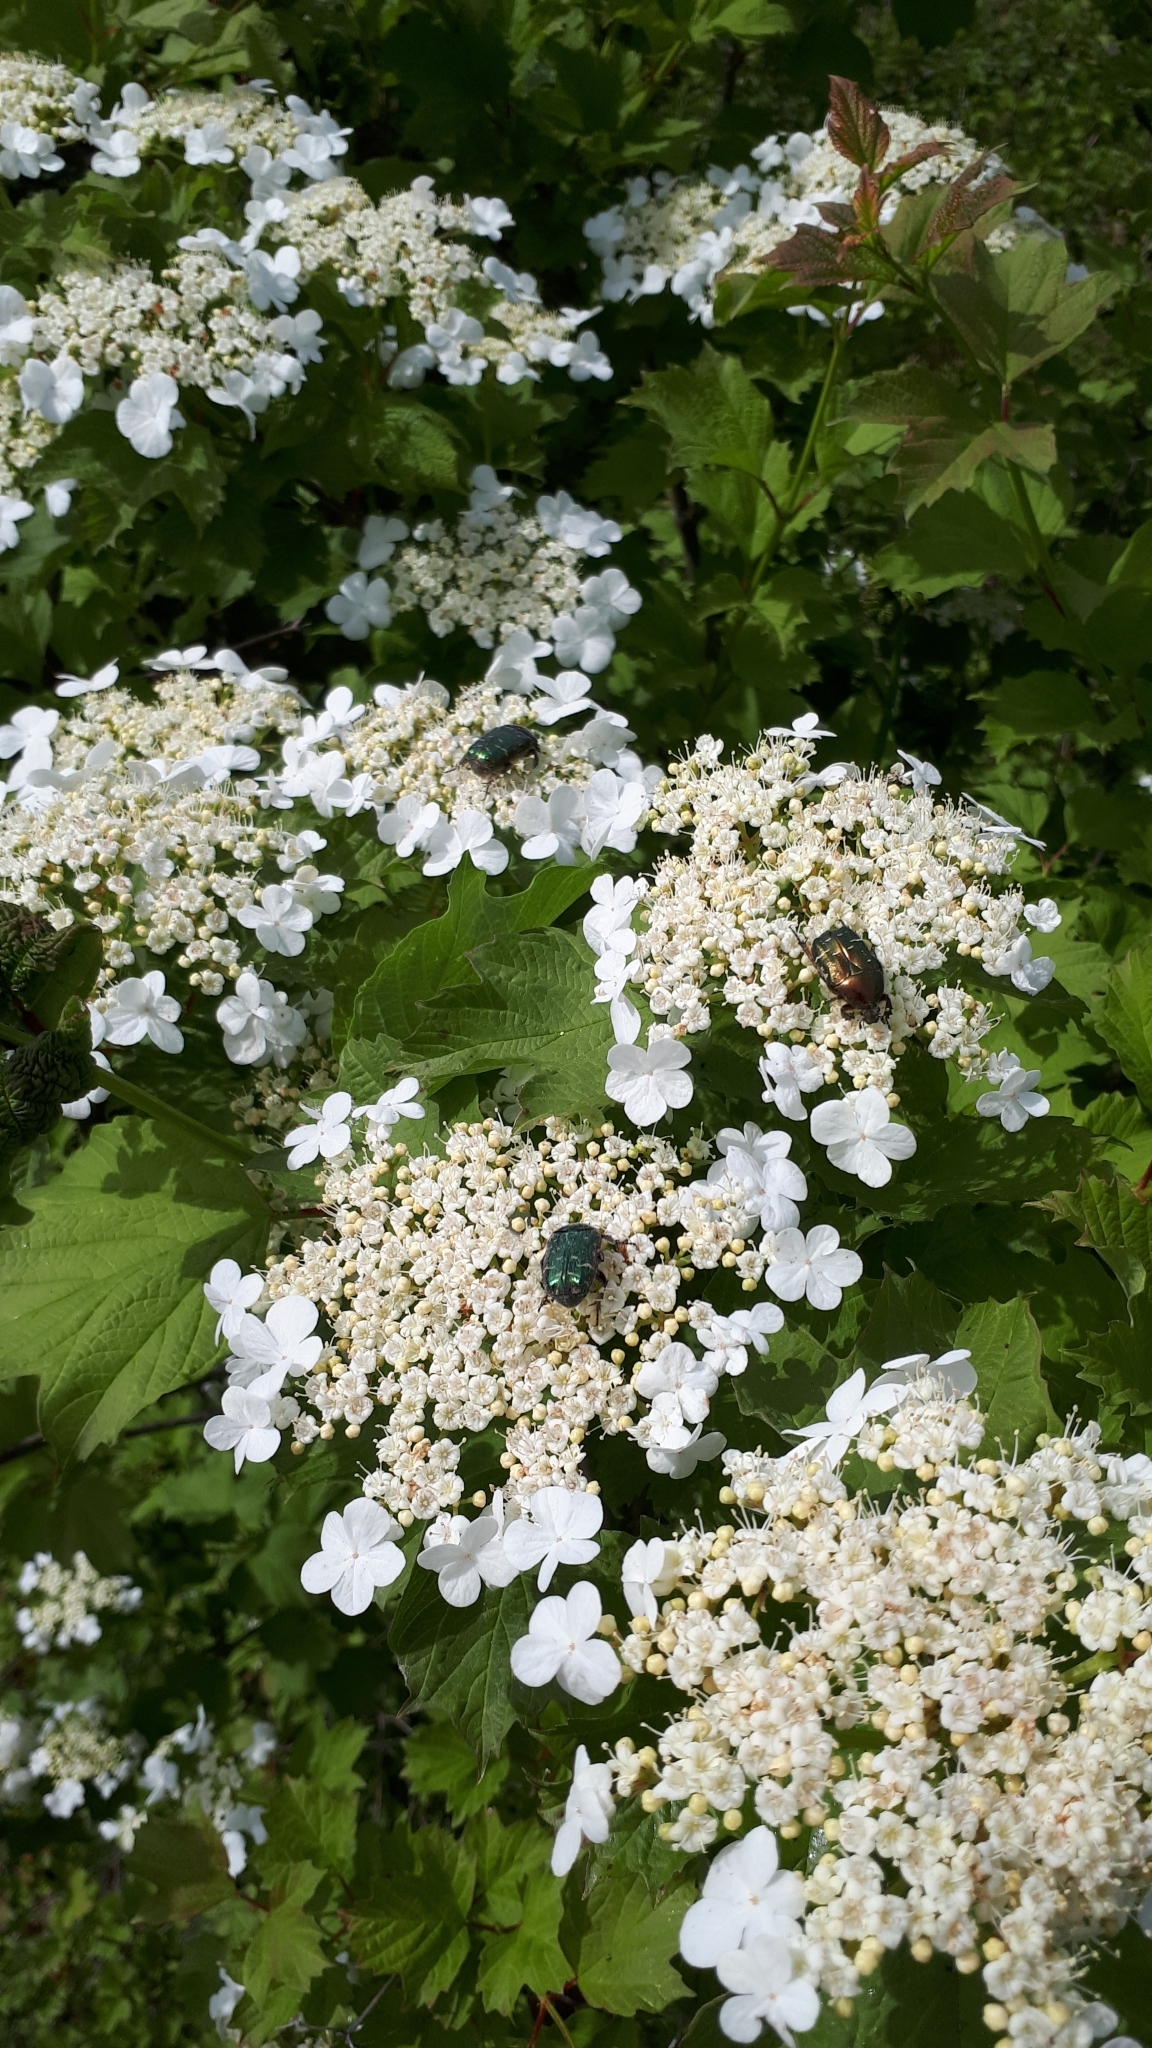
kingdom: Animalia
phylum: Arthropoda
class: Insecta
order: Coleoptera
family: Scarabaeidae
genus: Cetonia
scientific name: Cetonia aurata
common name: Rose chafer
